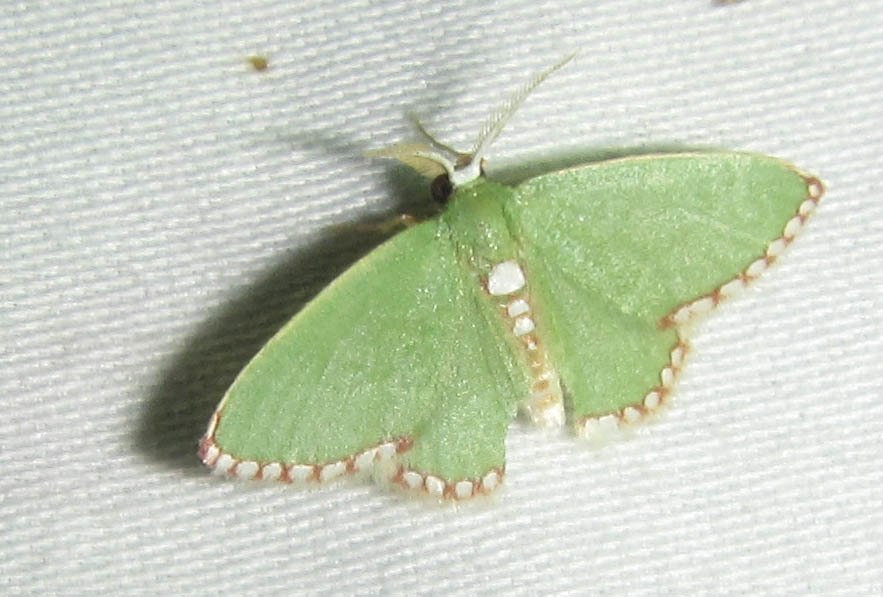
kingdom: Animalia
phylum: Arthropoda
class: Insecta
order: Lepidoptera
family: Geometridae
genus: Allochrostes
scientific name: Allochrostes impunctata
